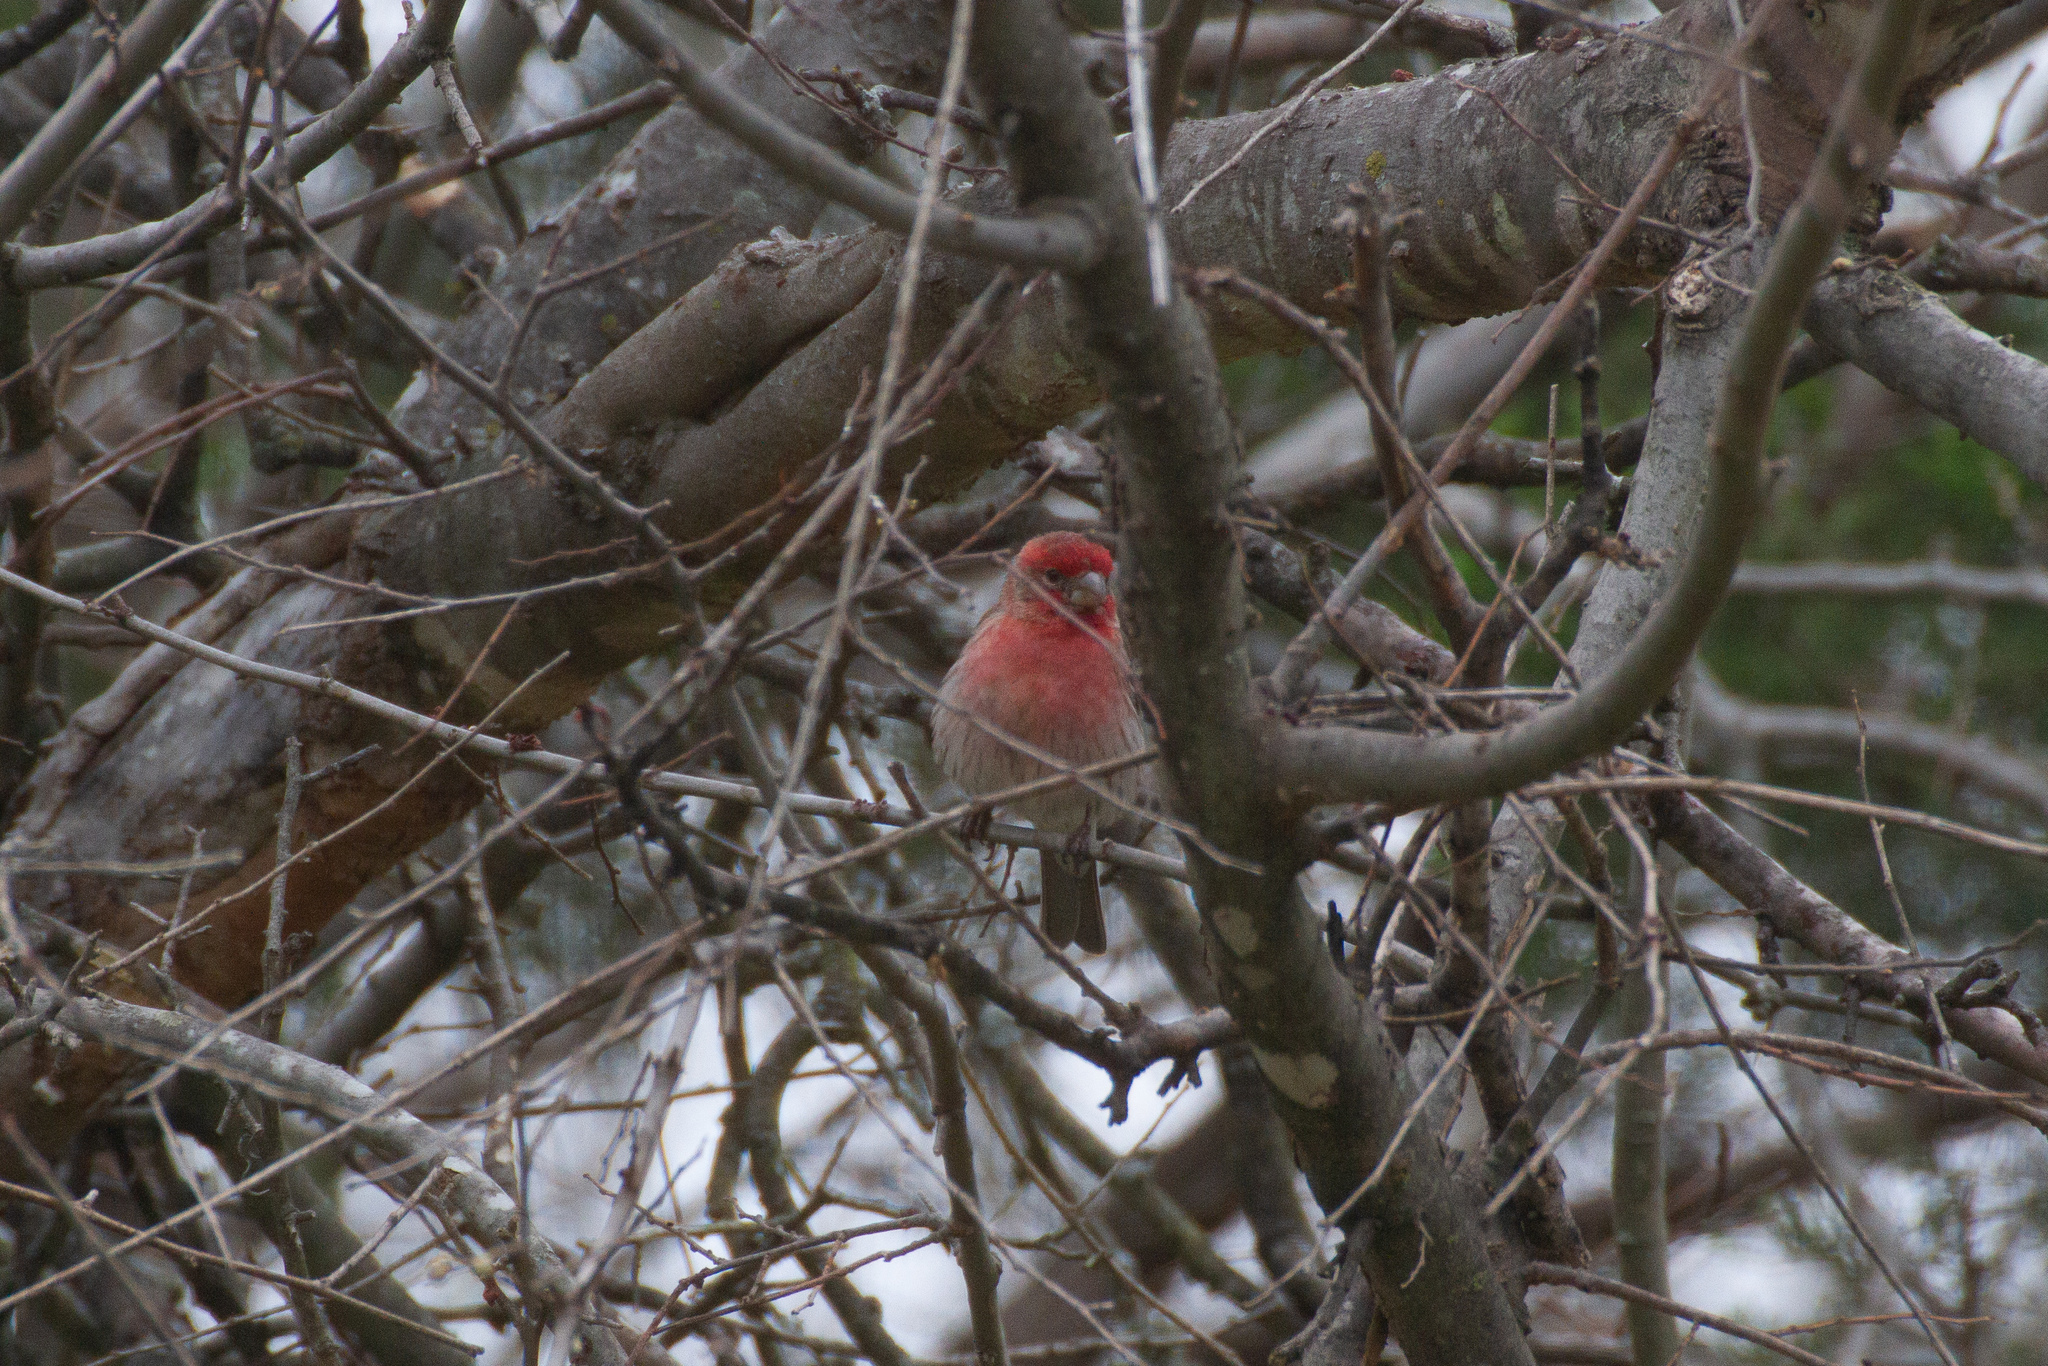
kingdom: Animalia
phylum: Chordata
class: Aves
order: Passeriformes
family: Fringillidae
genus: Haemorhous
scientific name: Haemorhous mexicanus
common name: House finch
